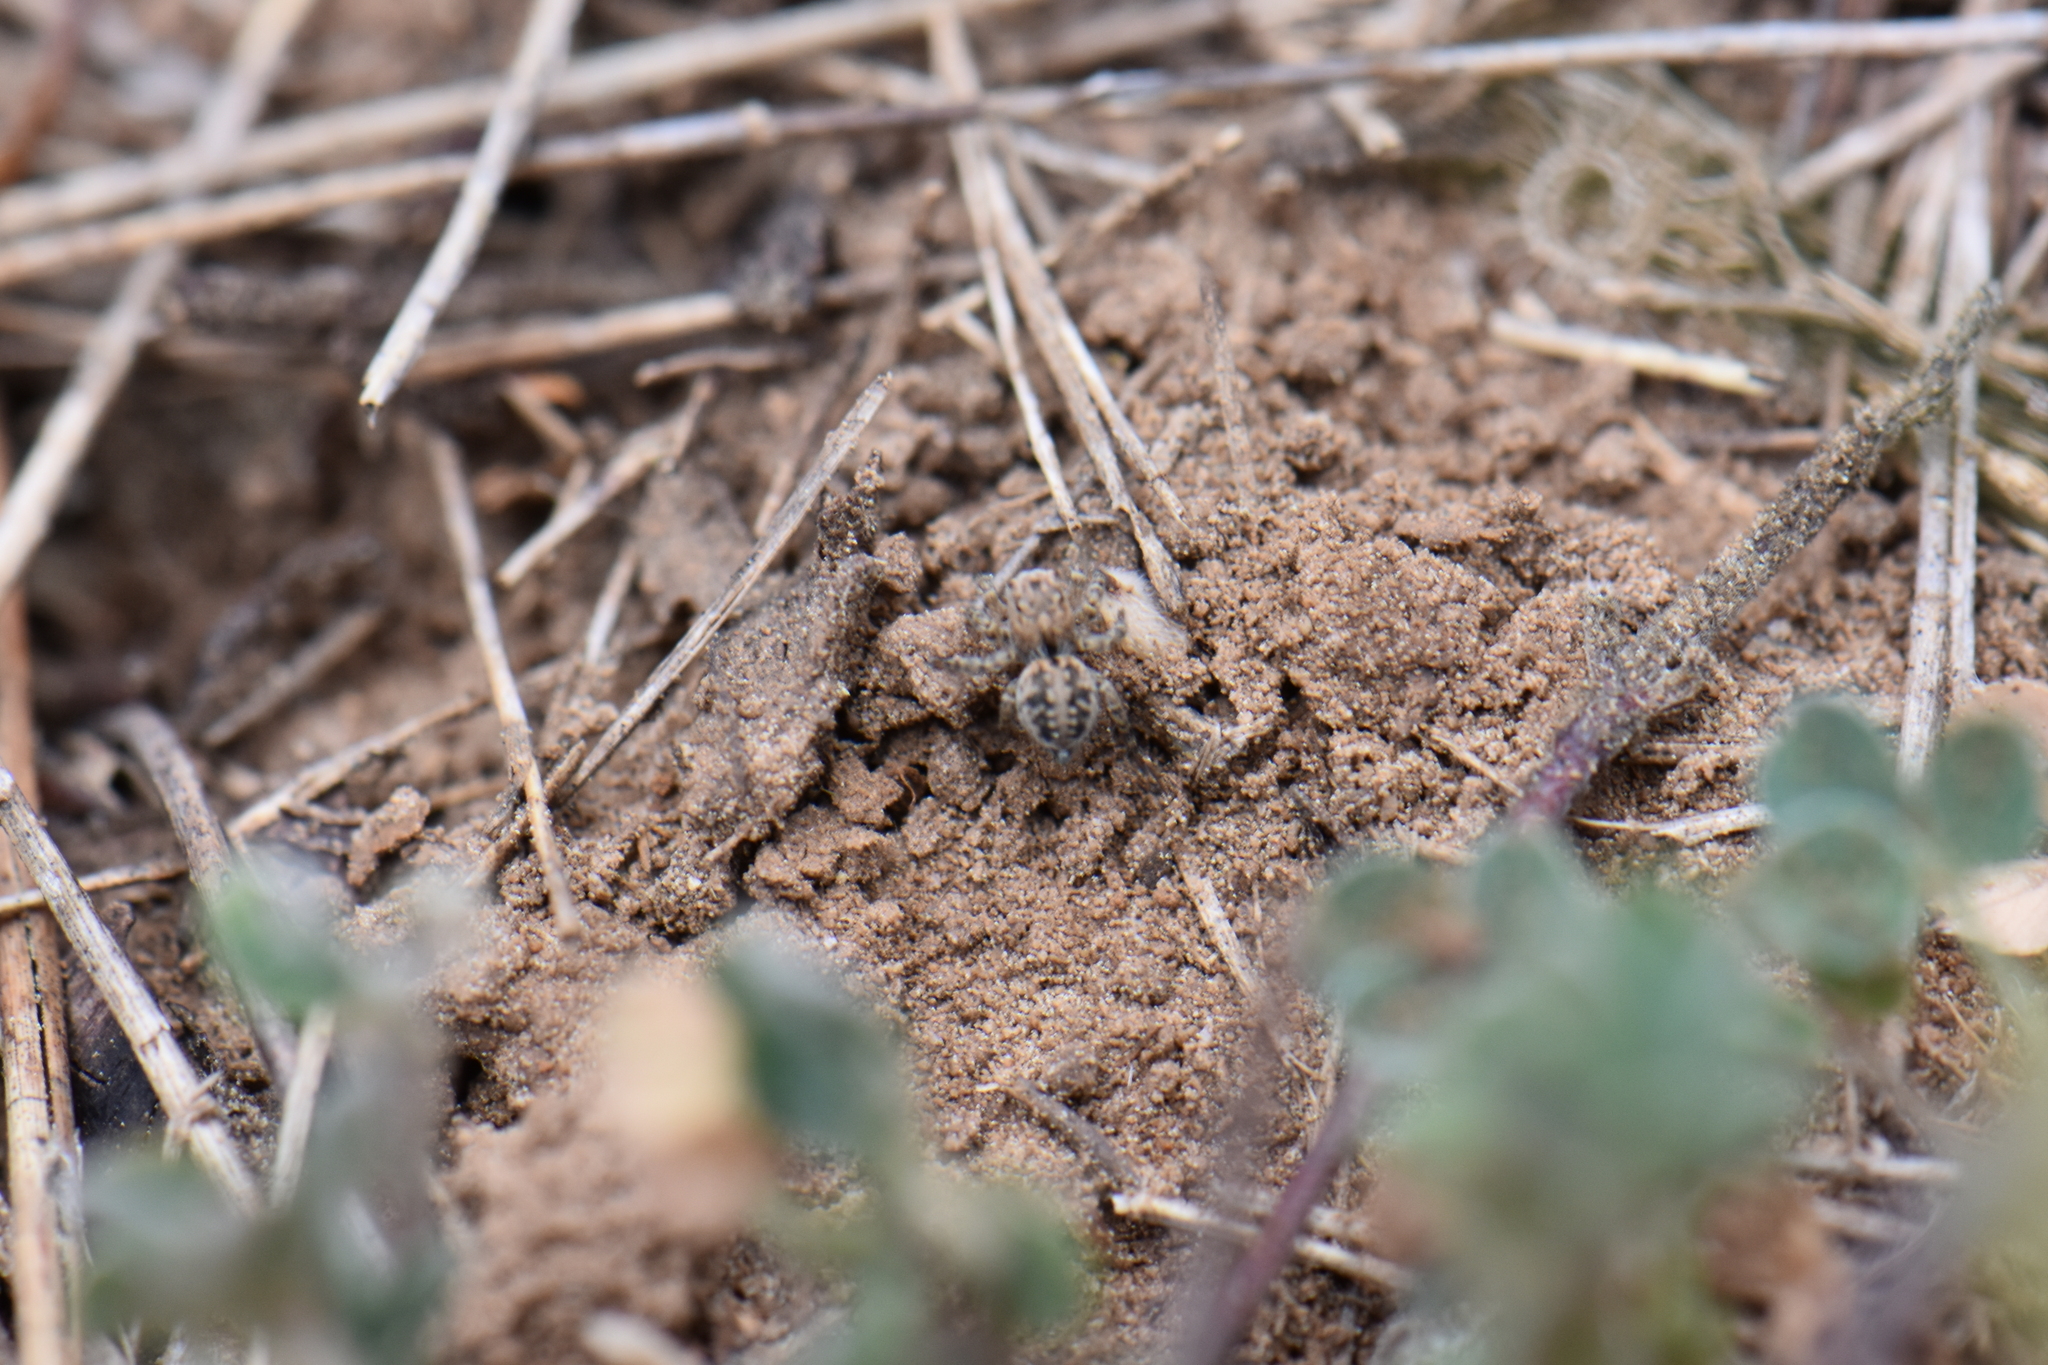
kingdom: Animalia
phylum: Arthropoda
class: Arachnida
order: Araneae
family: Salticidae
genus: Aelurillus
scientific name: Aelurillus v-insignitus
